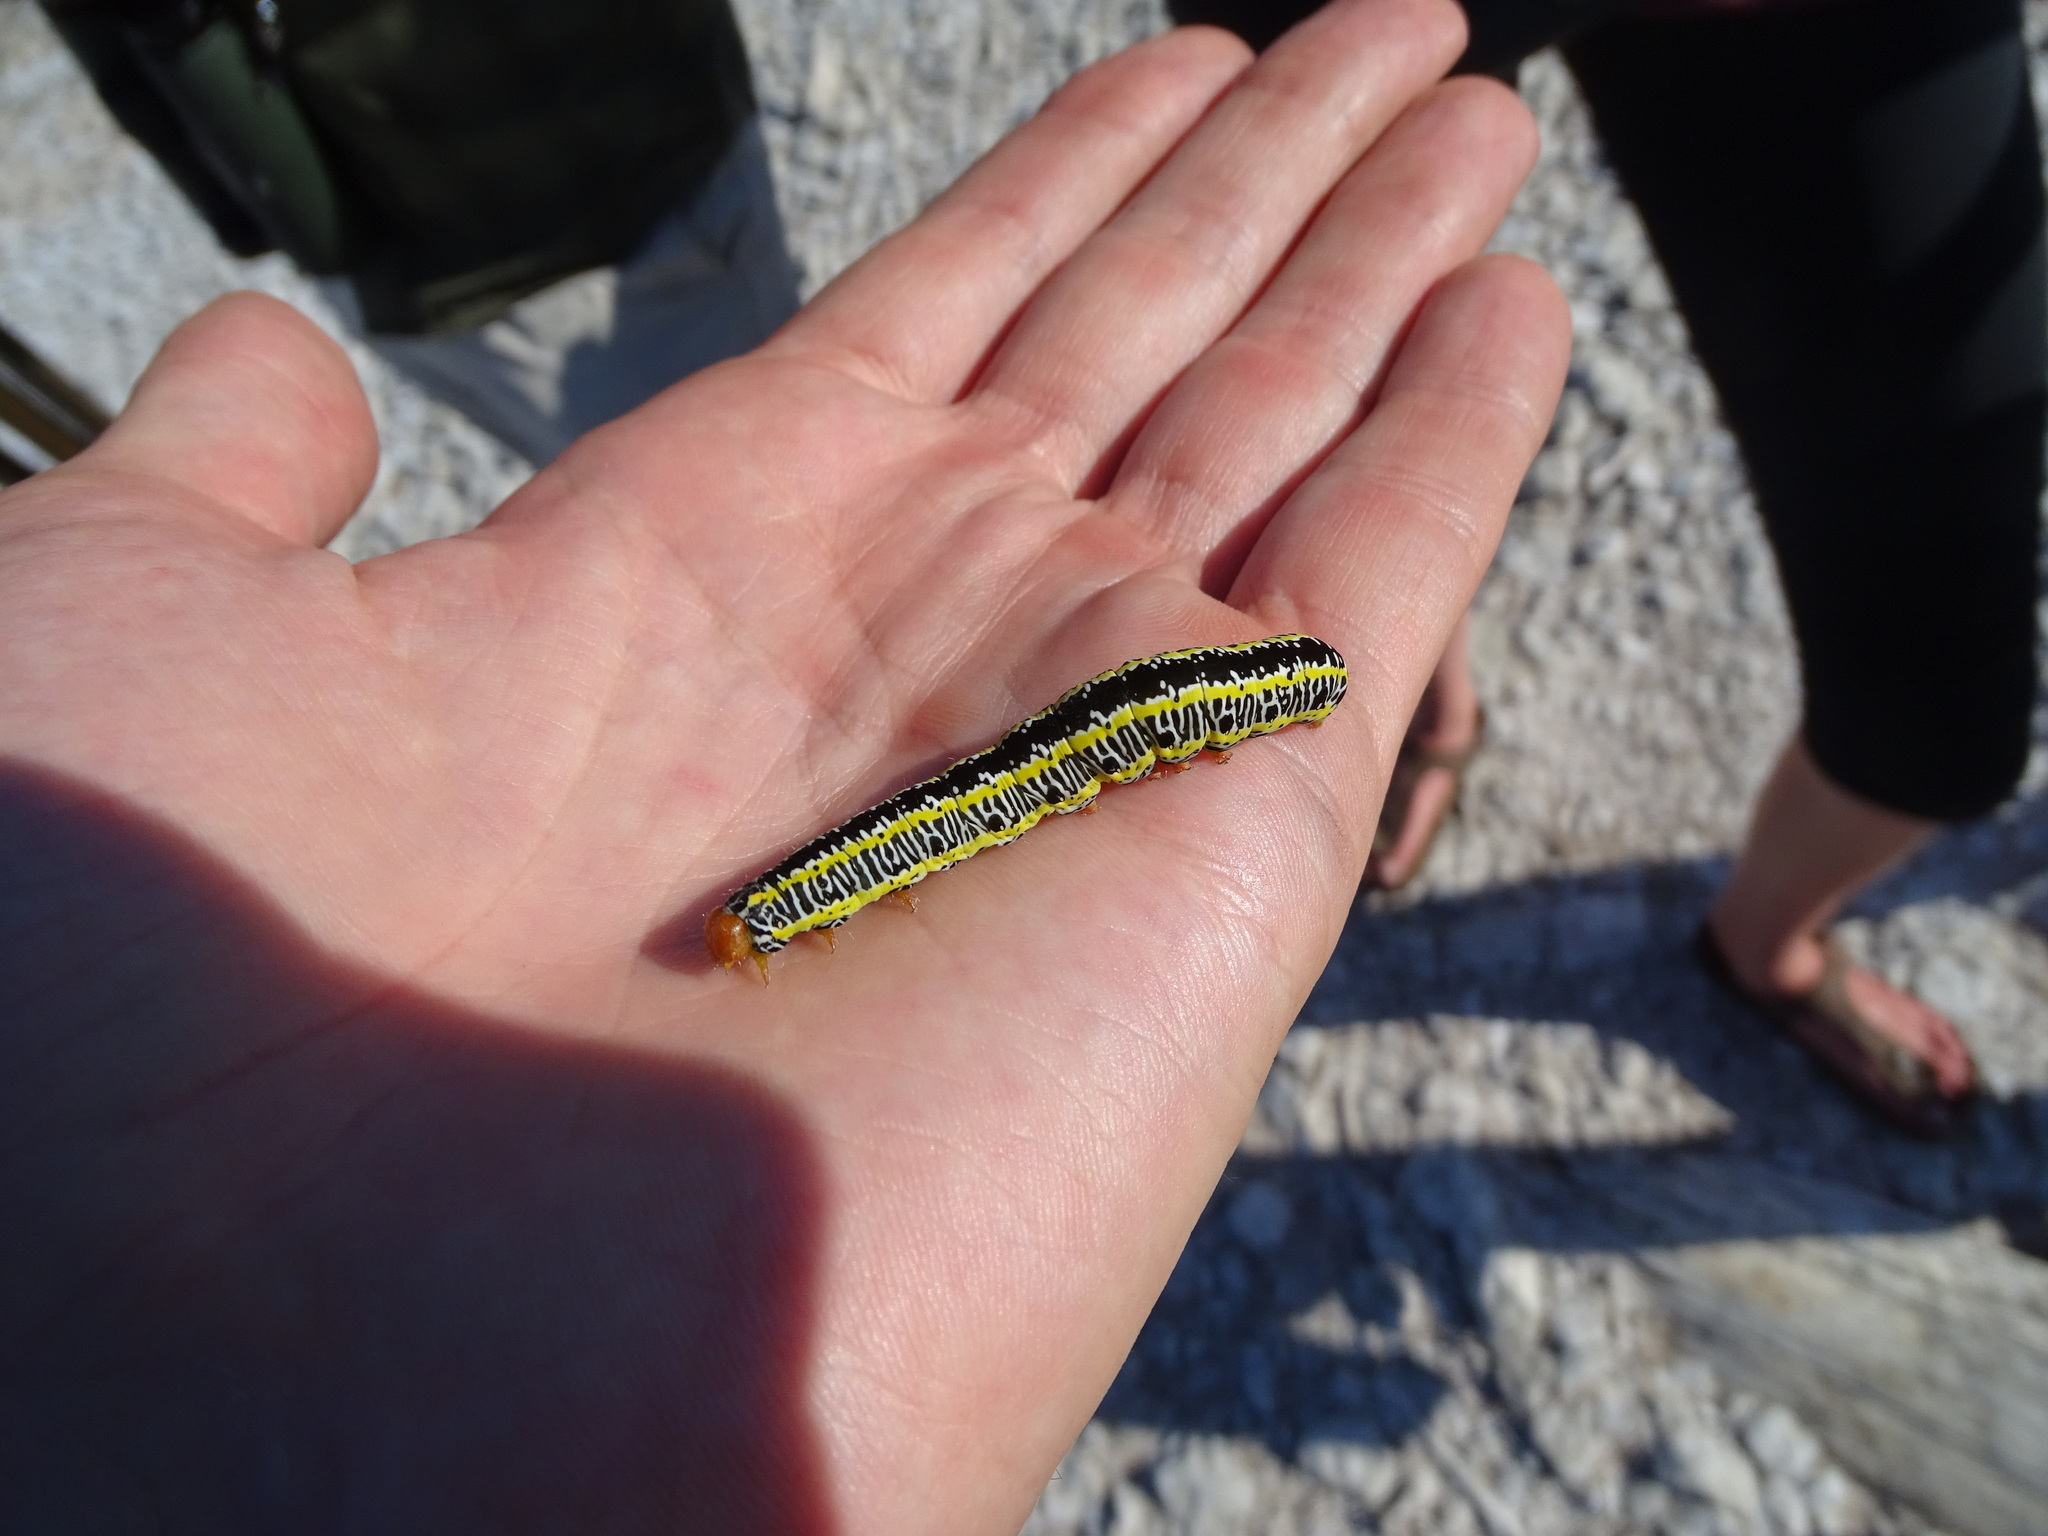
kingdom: Animalia
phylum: Arthropoda
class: Insecta
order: Lepidoptera
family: Noctuidae
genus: Melanchra
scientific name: Melanchra picta
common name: Zebra caterpillar
